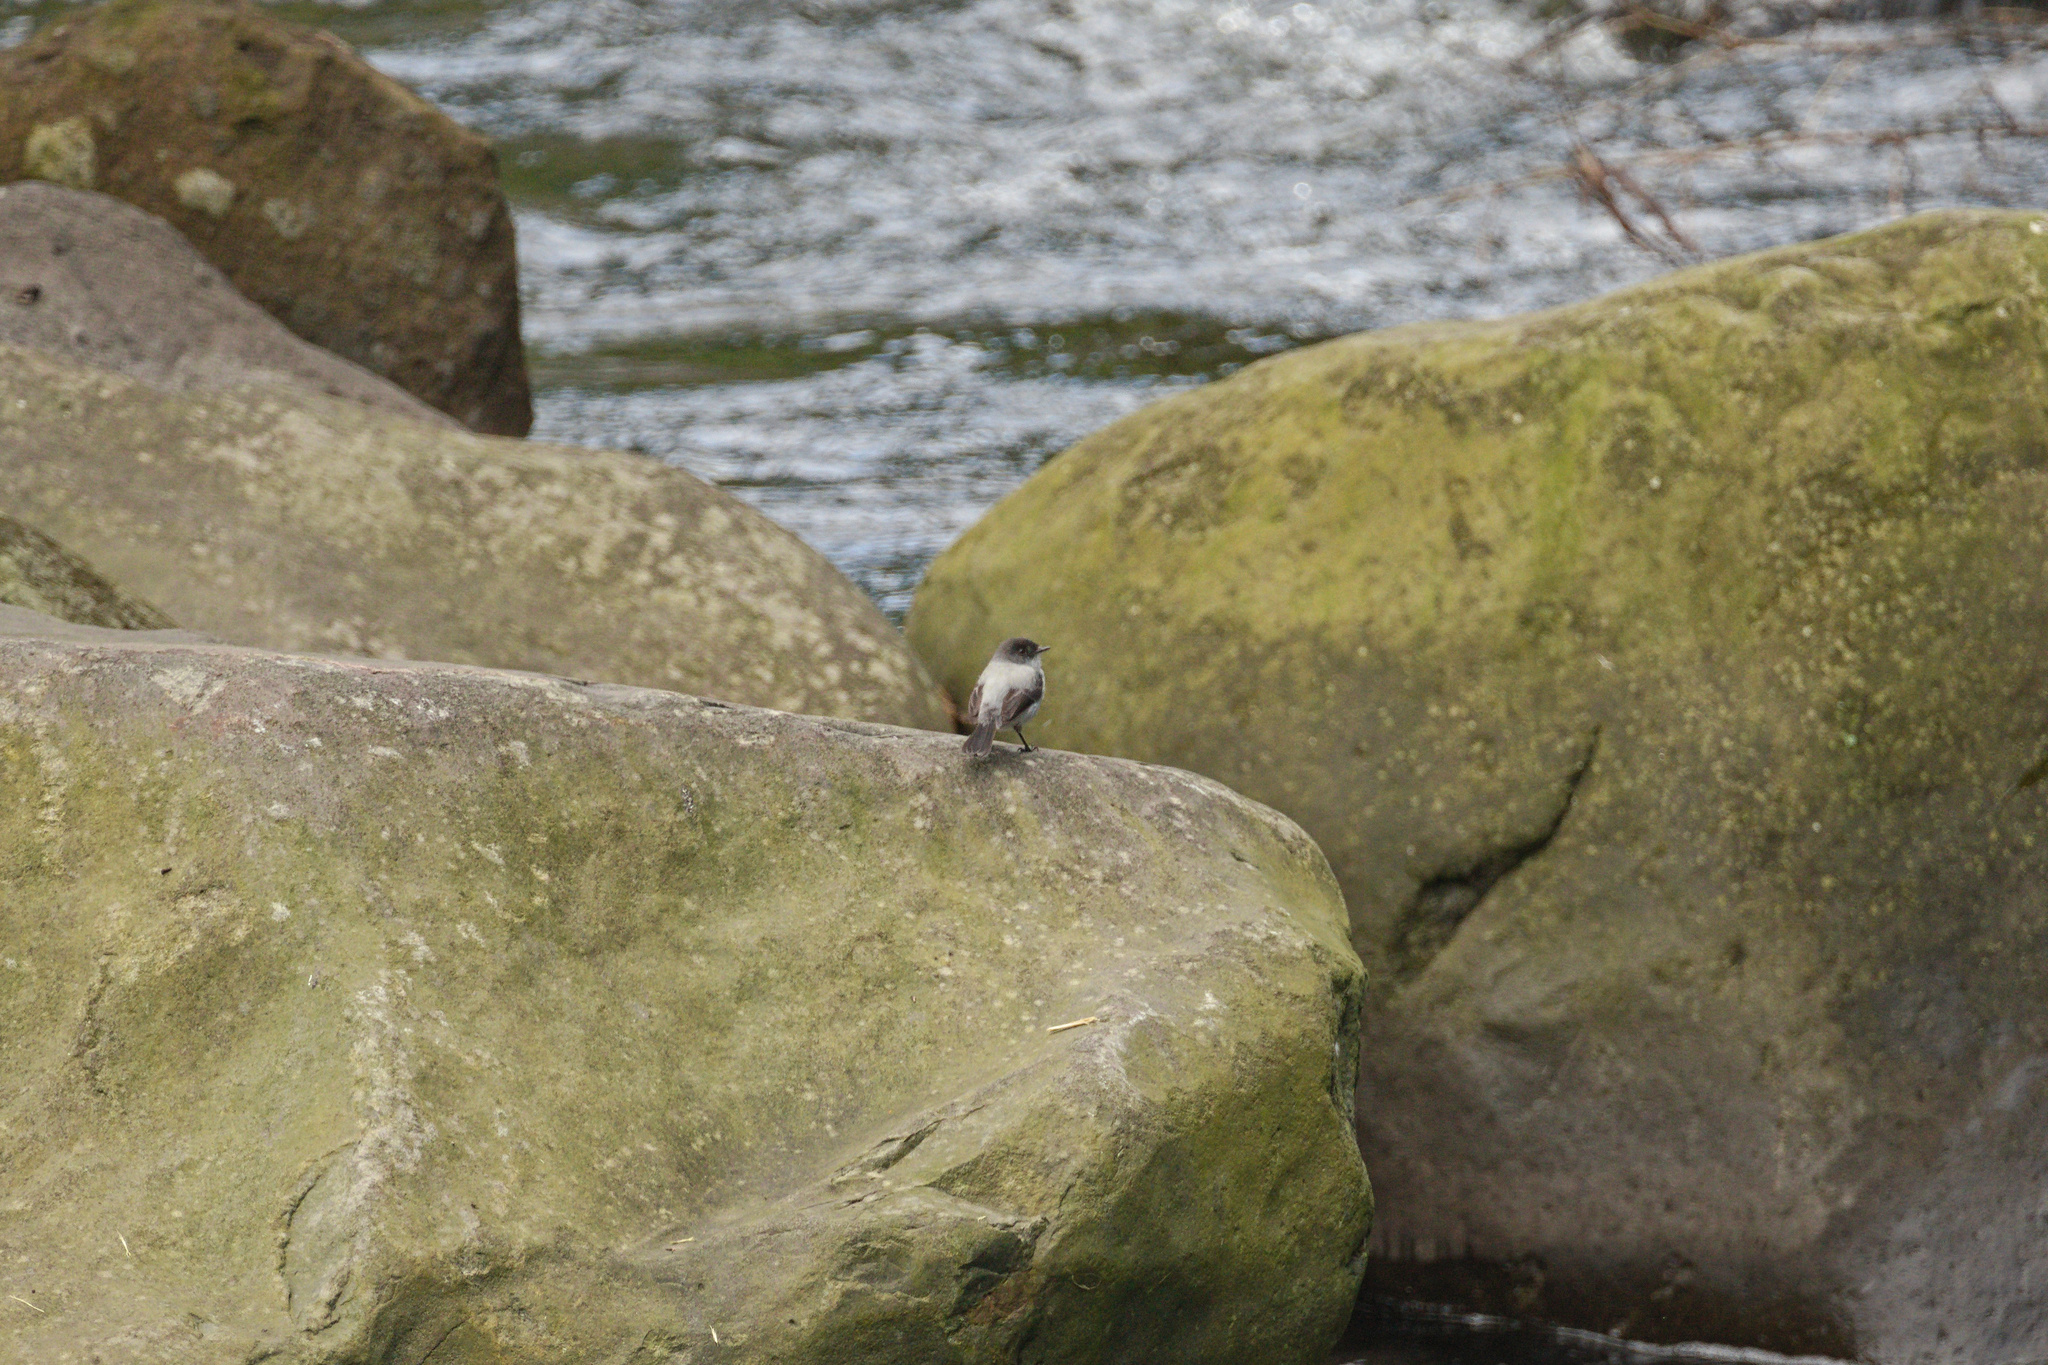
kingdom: Animalia
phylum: Chordata
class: Aves
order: Passeriformes
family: Tyrannidae
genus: Serpophaga
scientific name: Serpophaga cinerea
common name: Torrent tyrannulet
